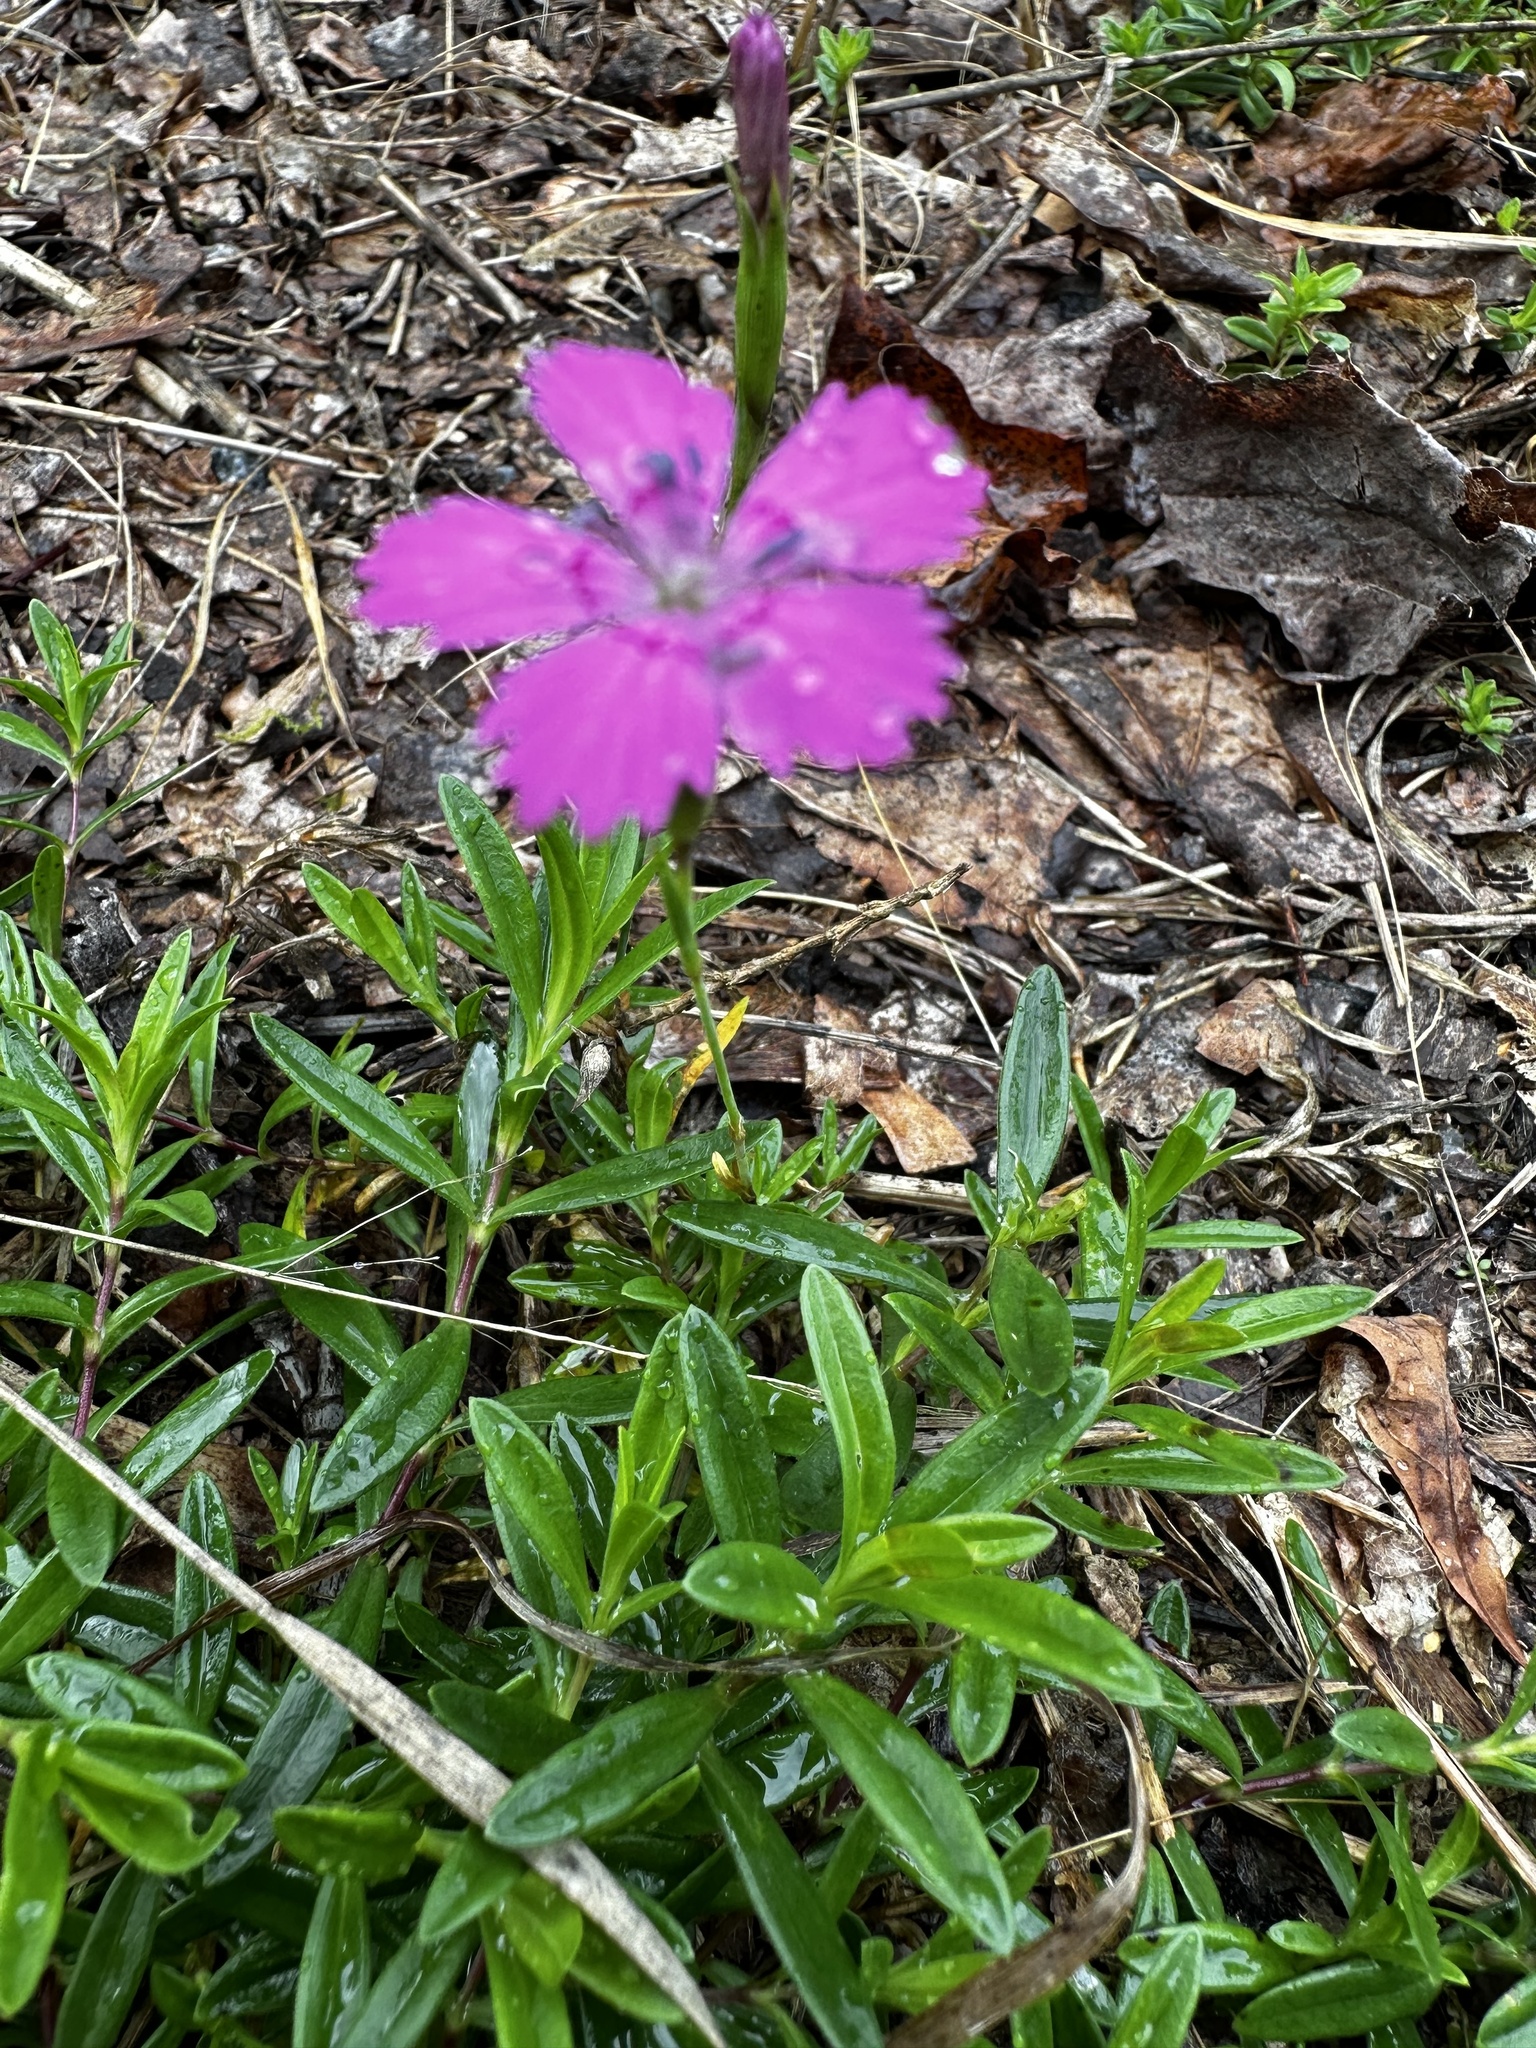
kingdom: Plantae
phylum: Tracheophyta
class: Magnoliopsida
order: Caryophyllales
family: Caryophyllaceae
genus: Dianthus
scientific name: Dianthus deltoides
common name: Maiden pink
